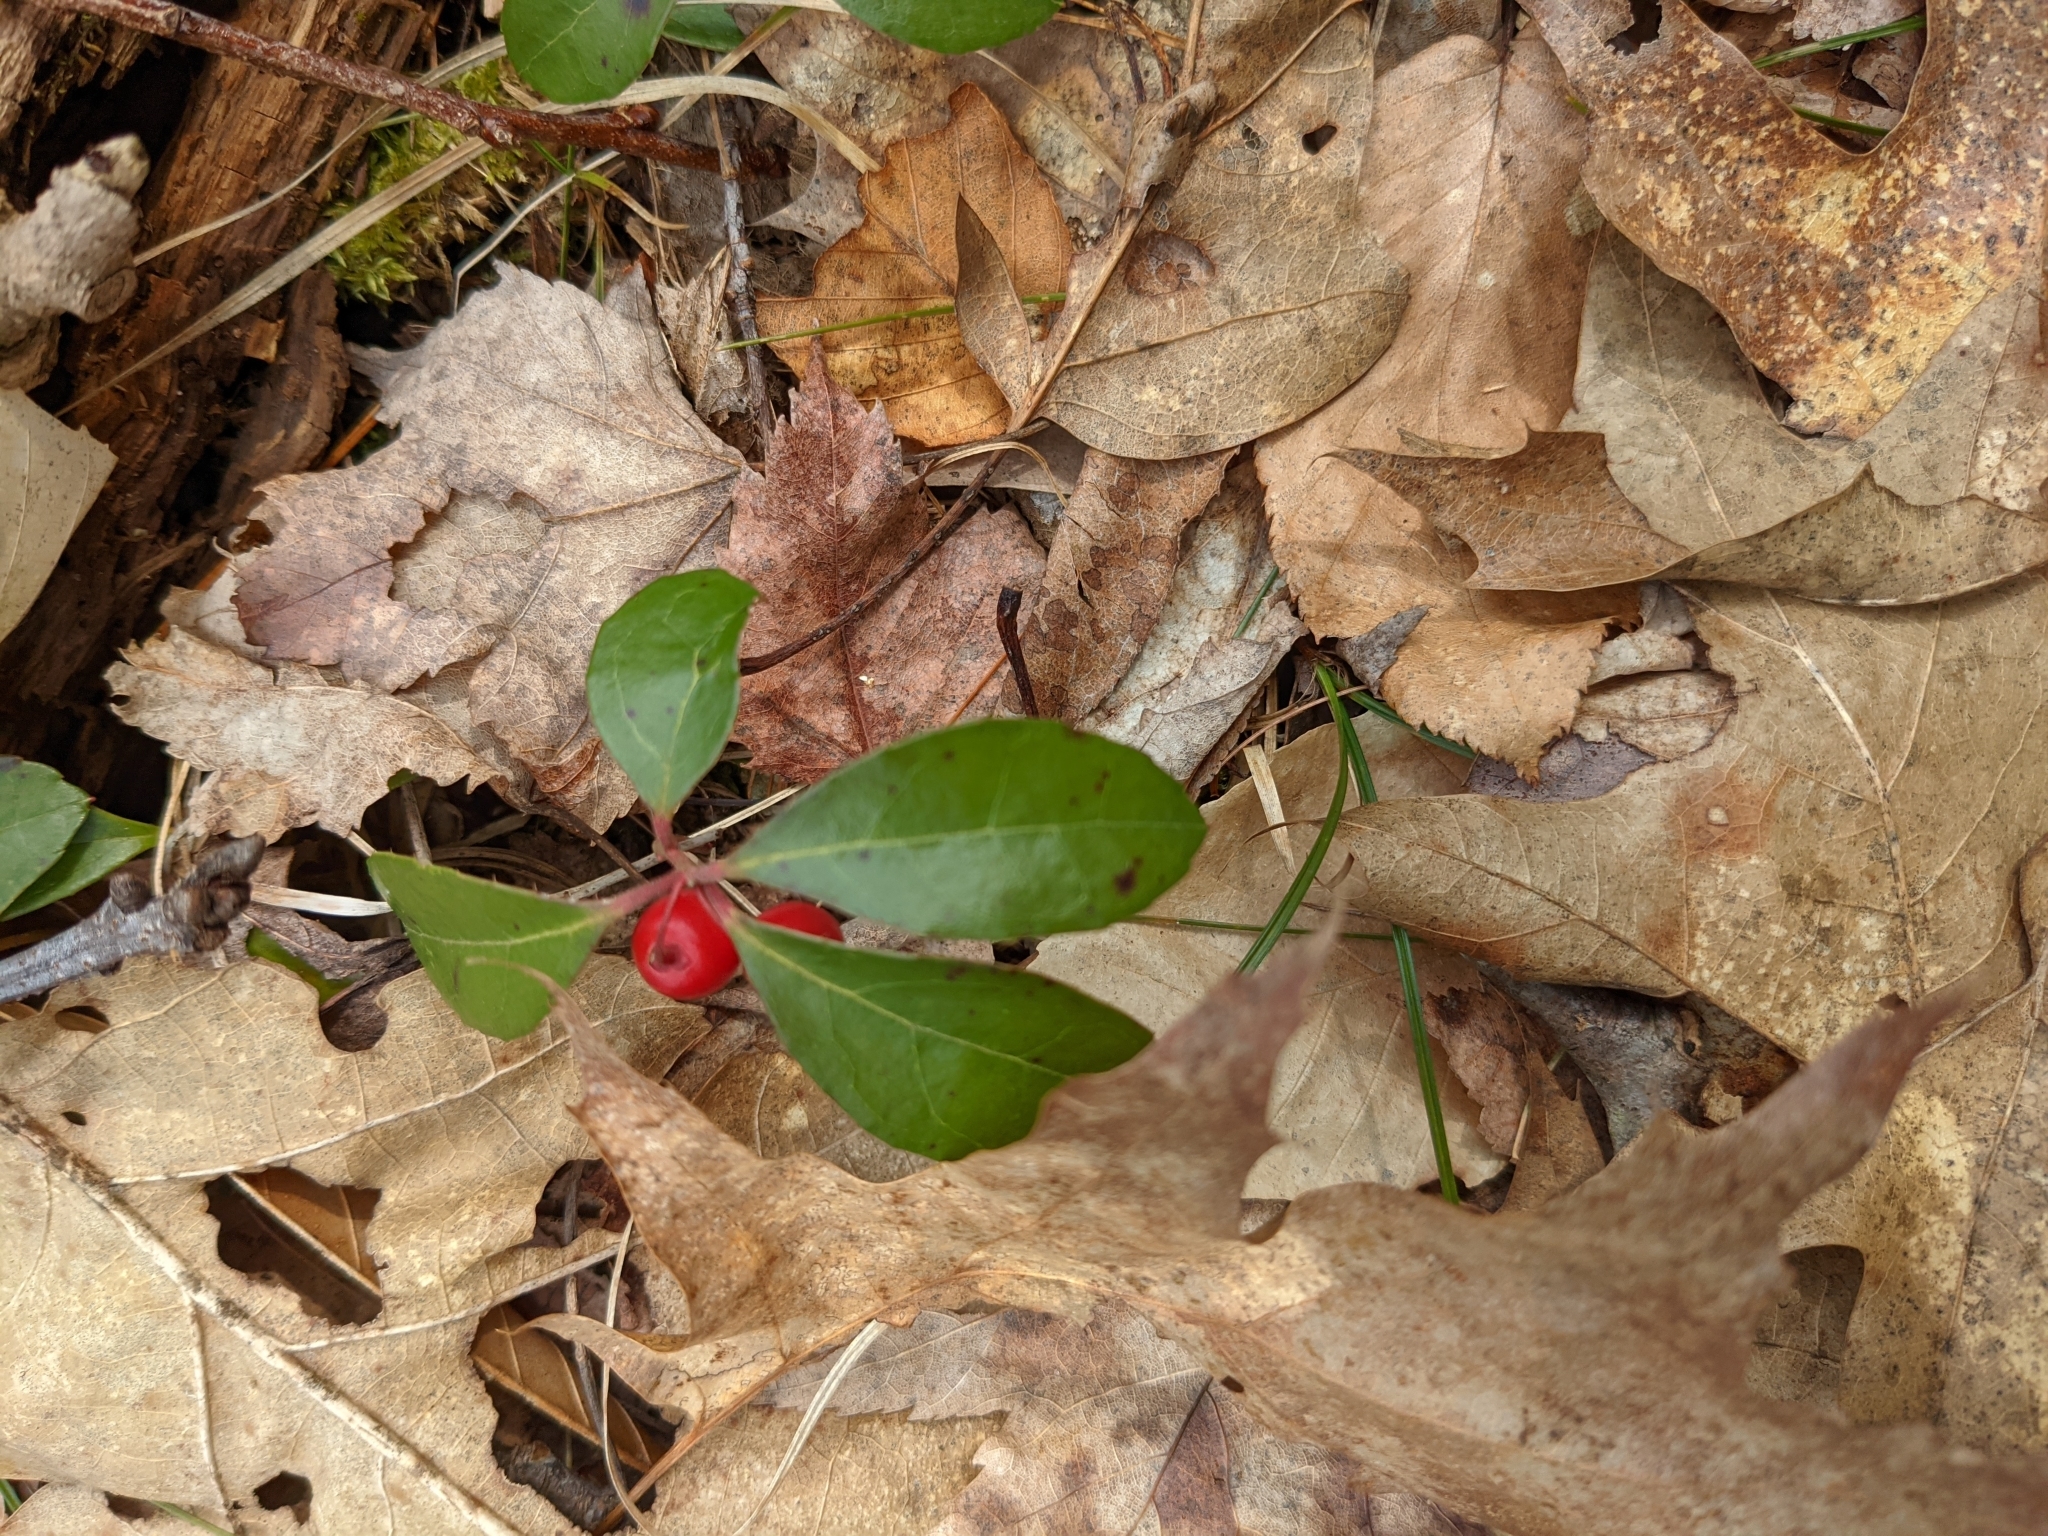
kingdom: Plantae
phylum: Tracheophyta
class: Magnoliopsida
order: Ericales
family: Ericaceae
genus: Gaultheria
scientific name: Gaultheria procumbens
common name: Checkerberry
